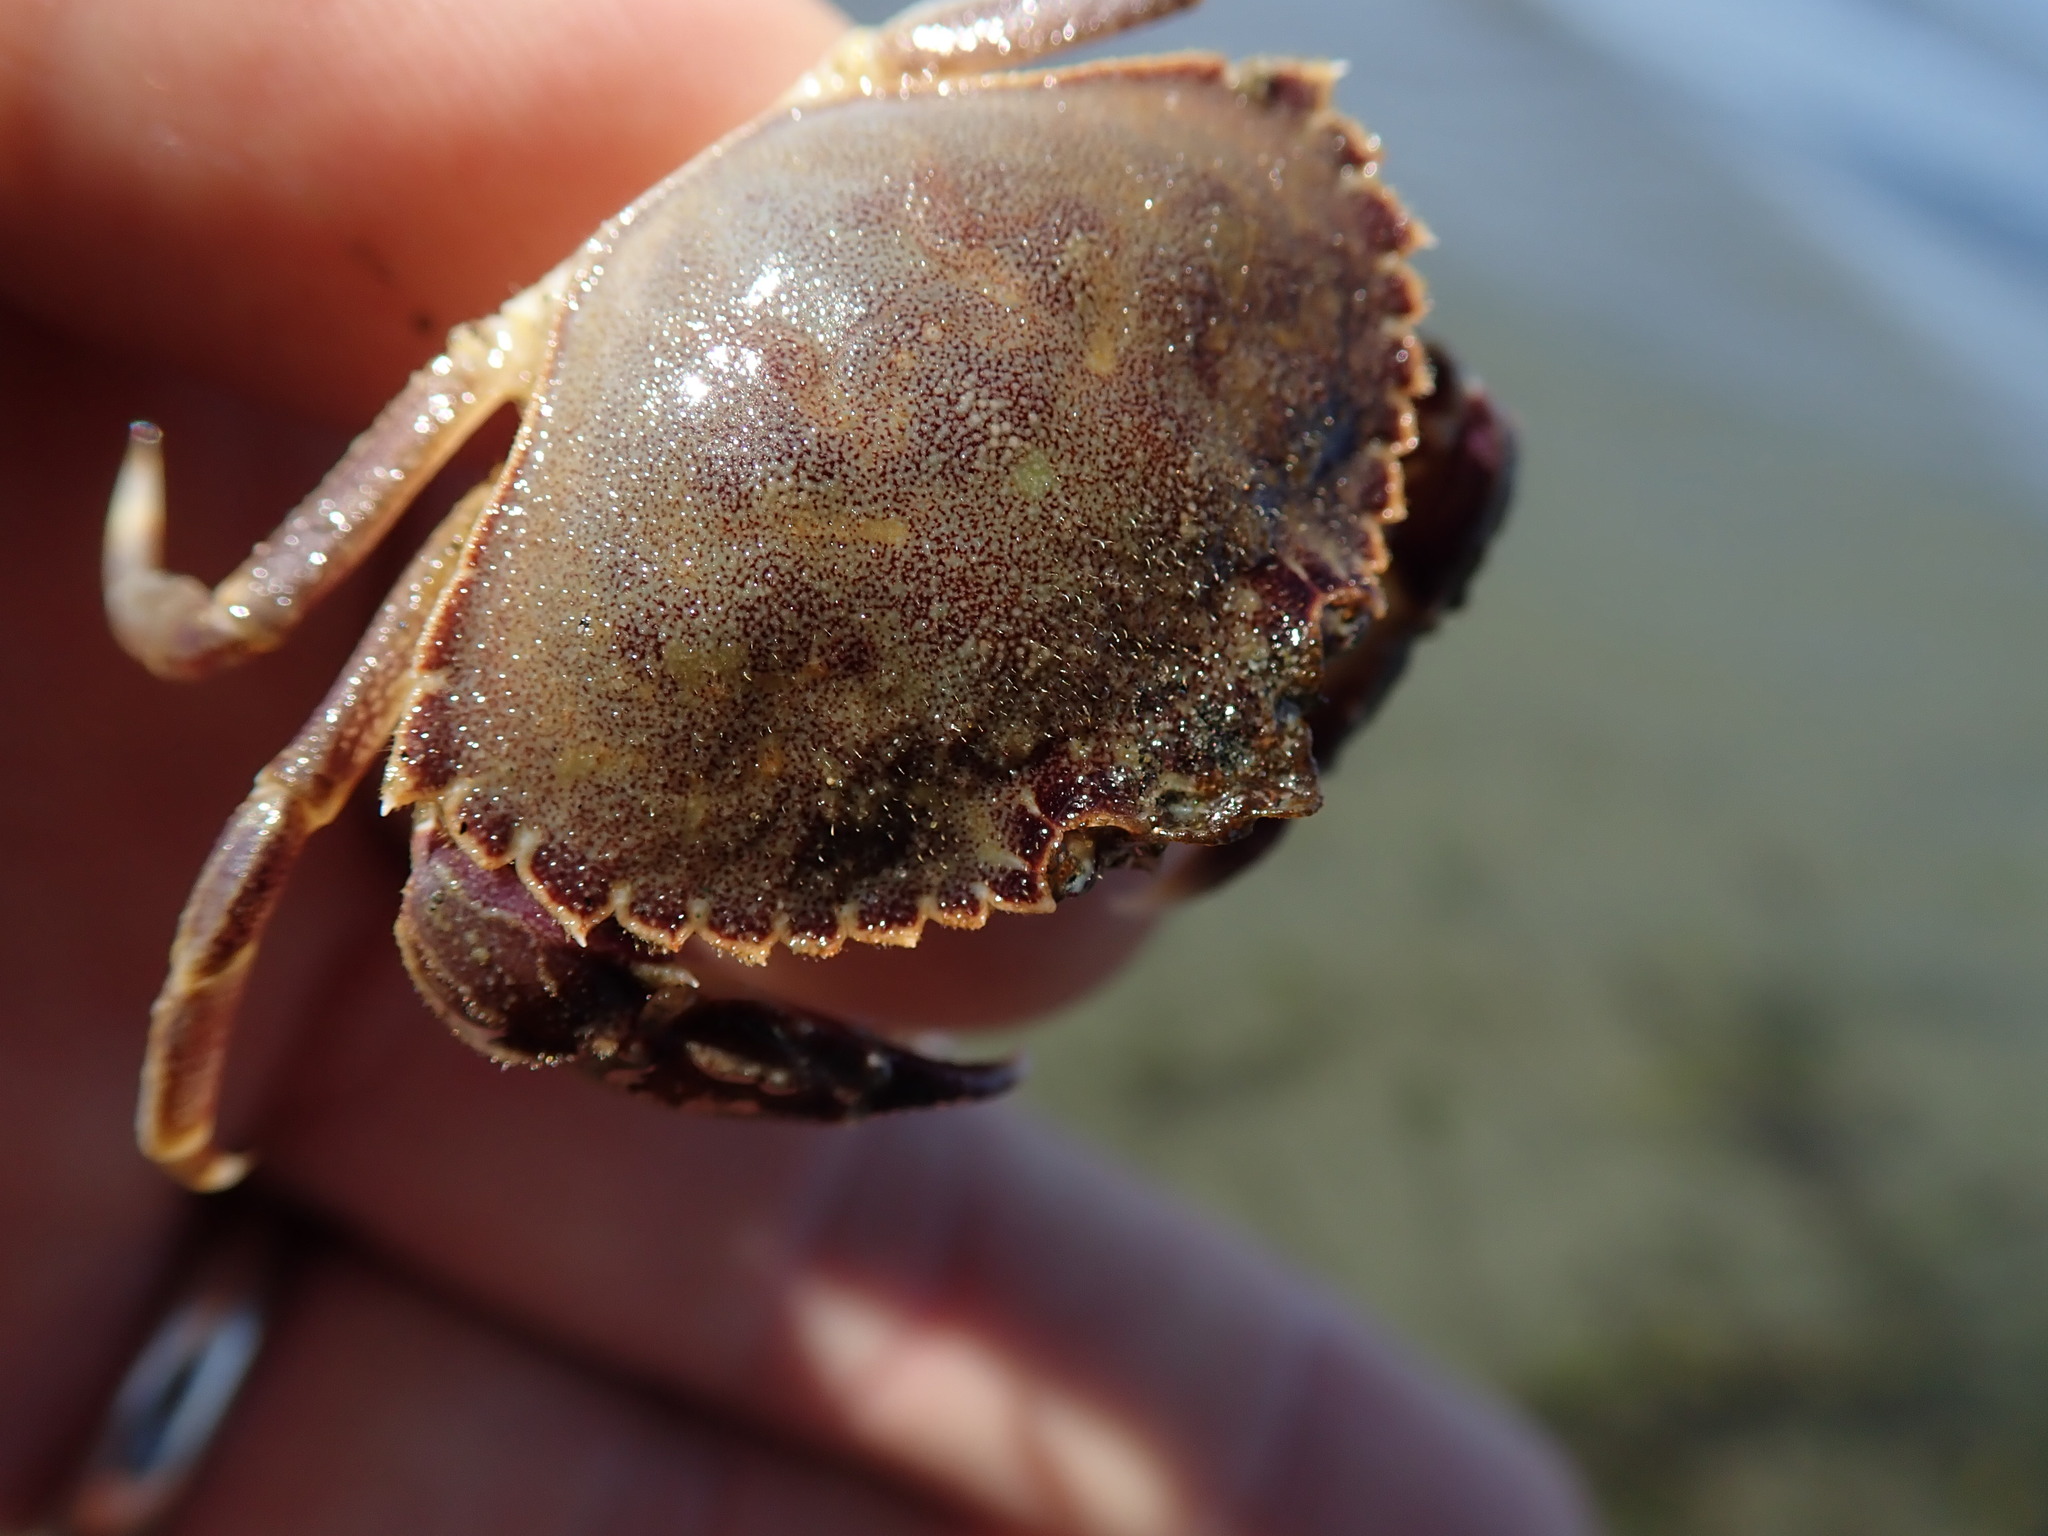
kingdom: Animalia
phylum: Arthropoda
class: Malacostraca
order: Decapoda
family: Cancridae
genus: Metacarcinus
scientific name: Metacarcinus gracilis
